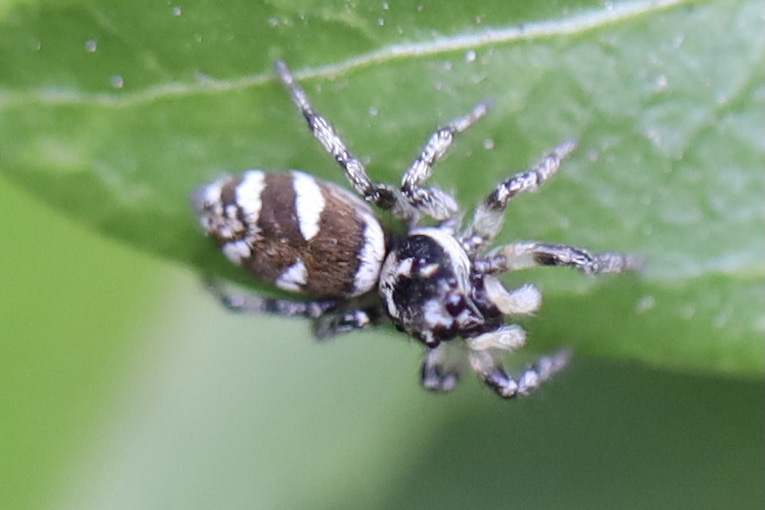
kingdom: Animalia
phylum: Arthropoda
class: Arachnida
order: Araneae
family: Salticidae
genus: Salticus
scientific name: Salticus scenicus
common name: Zebra jumper
